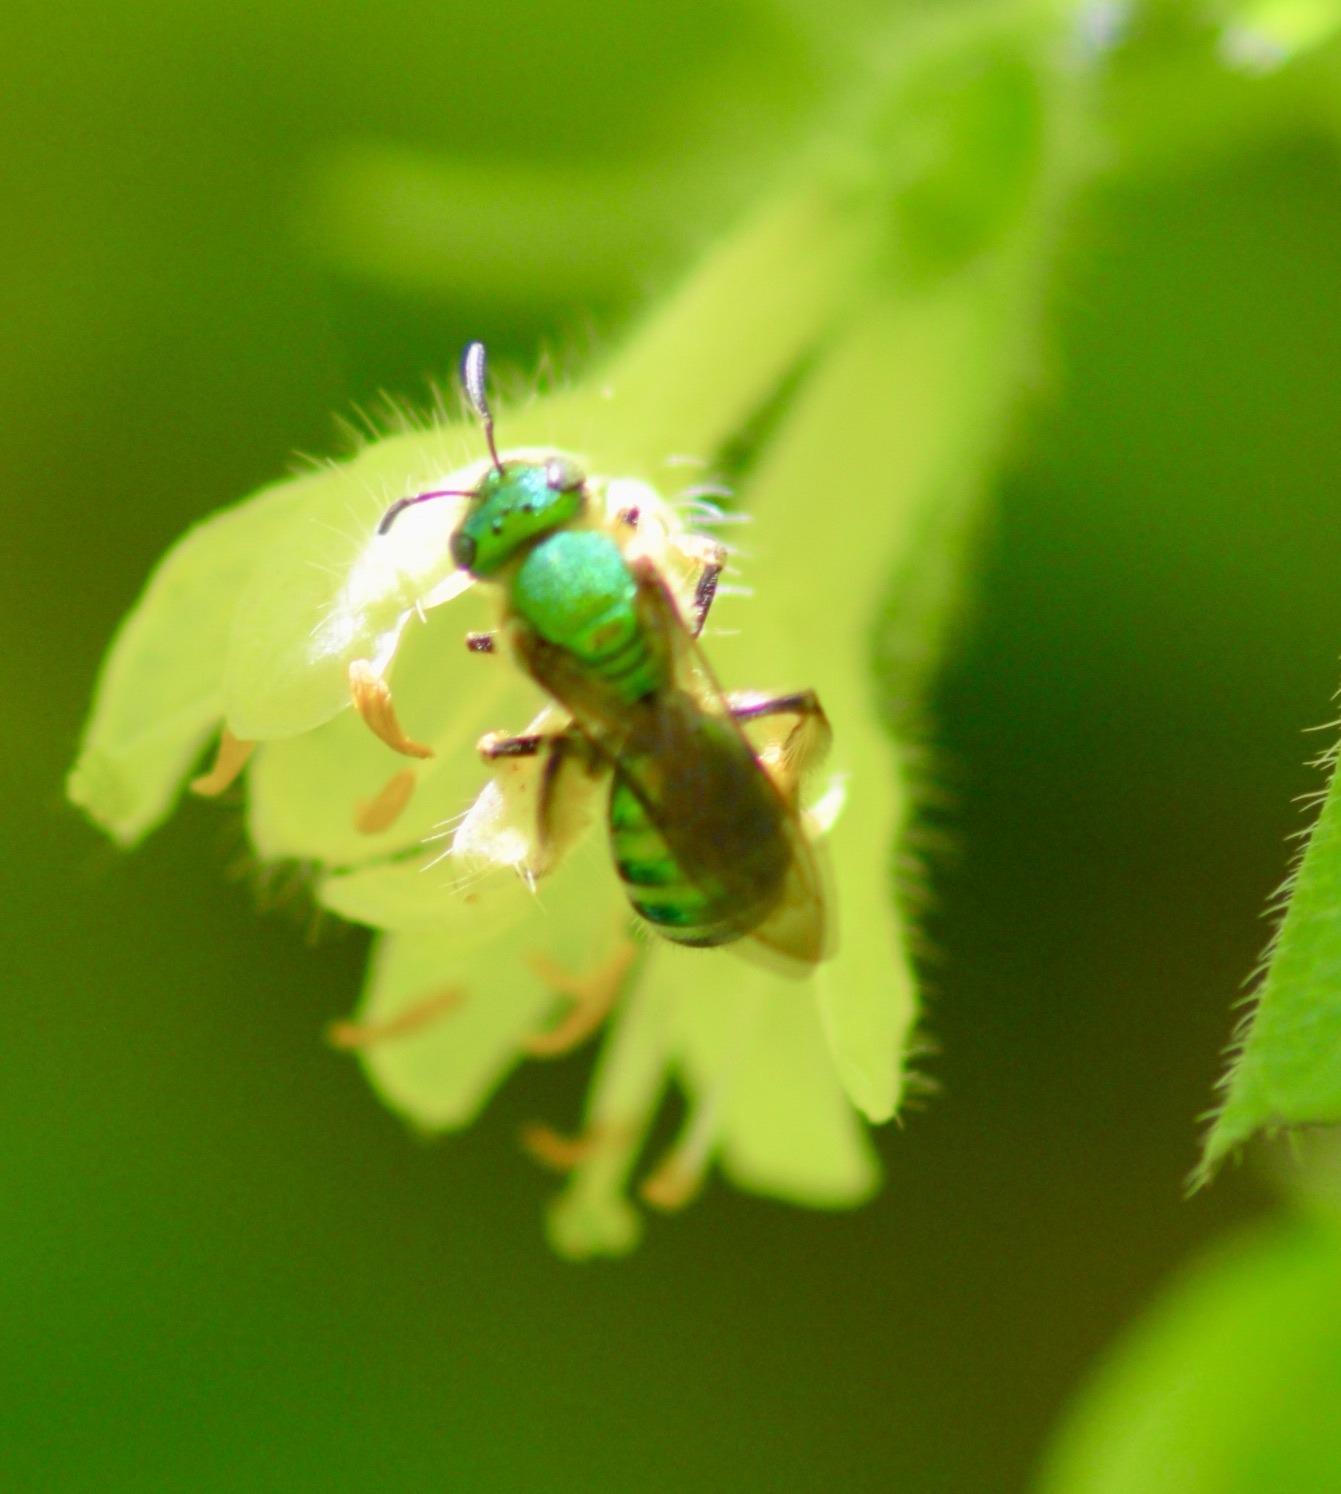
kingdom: Animalia
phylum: Arthropoda
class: Insecta
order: Hymenoptera
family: Halictidae
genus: Augochlora
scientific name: Augochlora pura
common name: Pure green sweat bee
